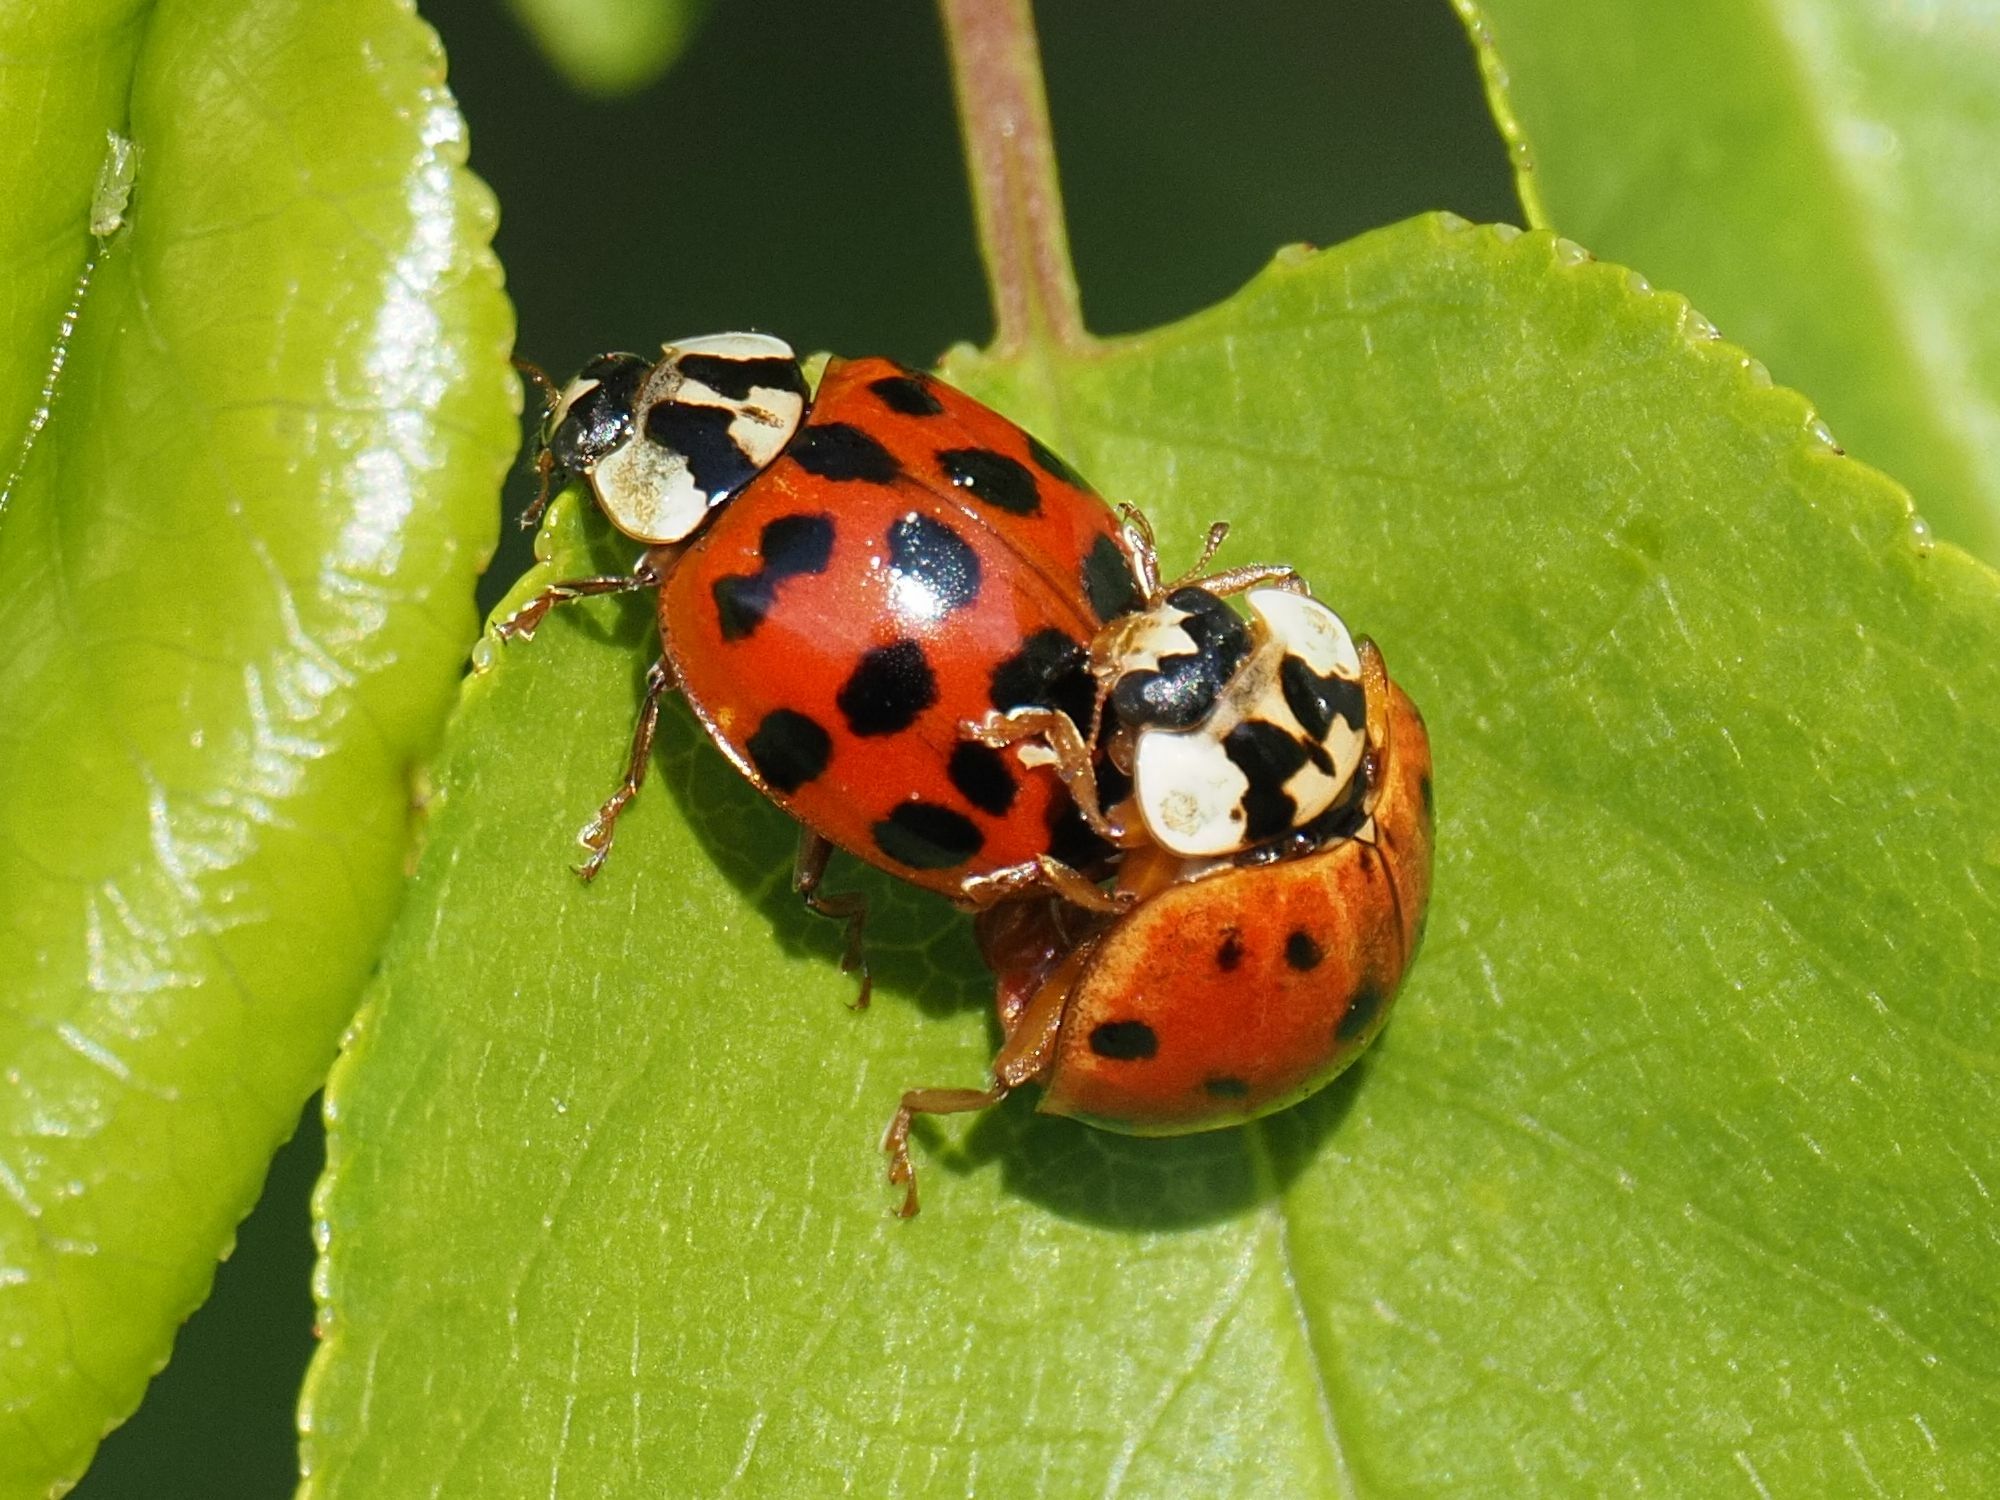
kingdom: Animalia
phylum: Arthropoda
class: Insecta
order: Coleoptera
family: Coccinellidae
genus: Harmonia
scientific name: Harmonia axyridis
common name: Harlequin ladybird
